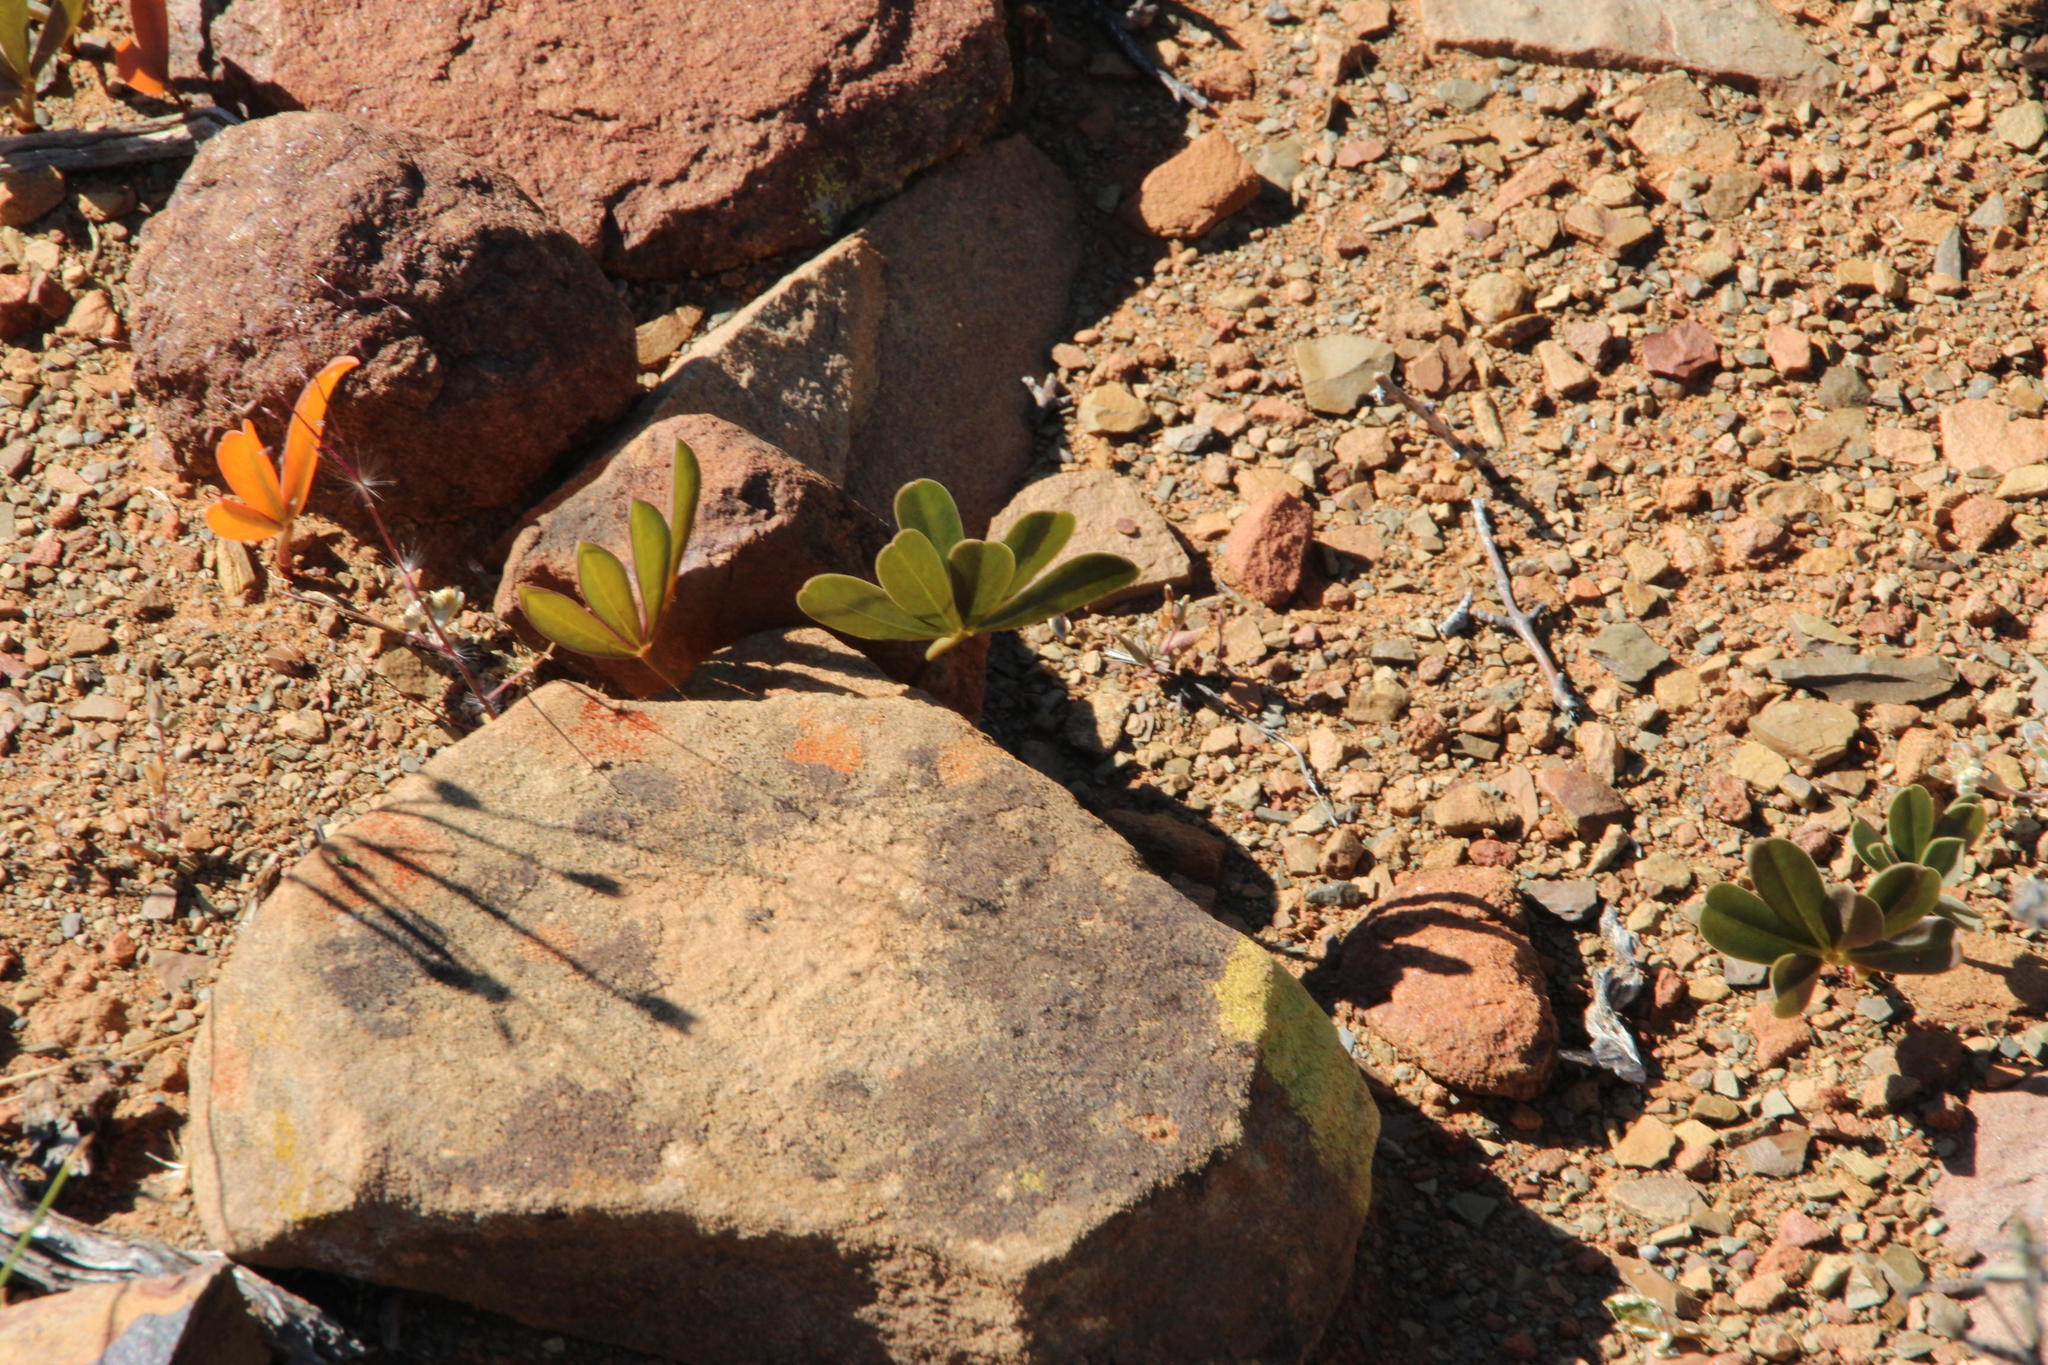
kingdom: Plantae
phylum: Tracheophyta
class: Magnoliopsida
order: Oxalidales
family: Oxalidaceae
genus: Oxalis
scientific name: Oxalis flava
